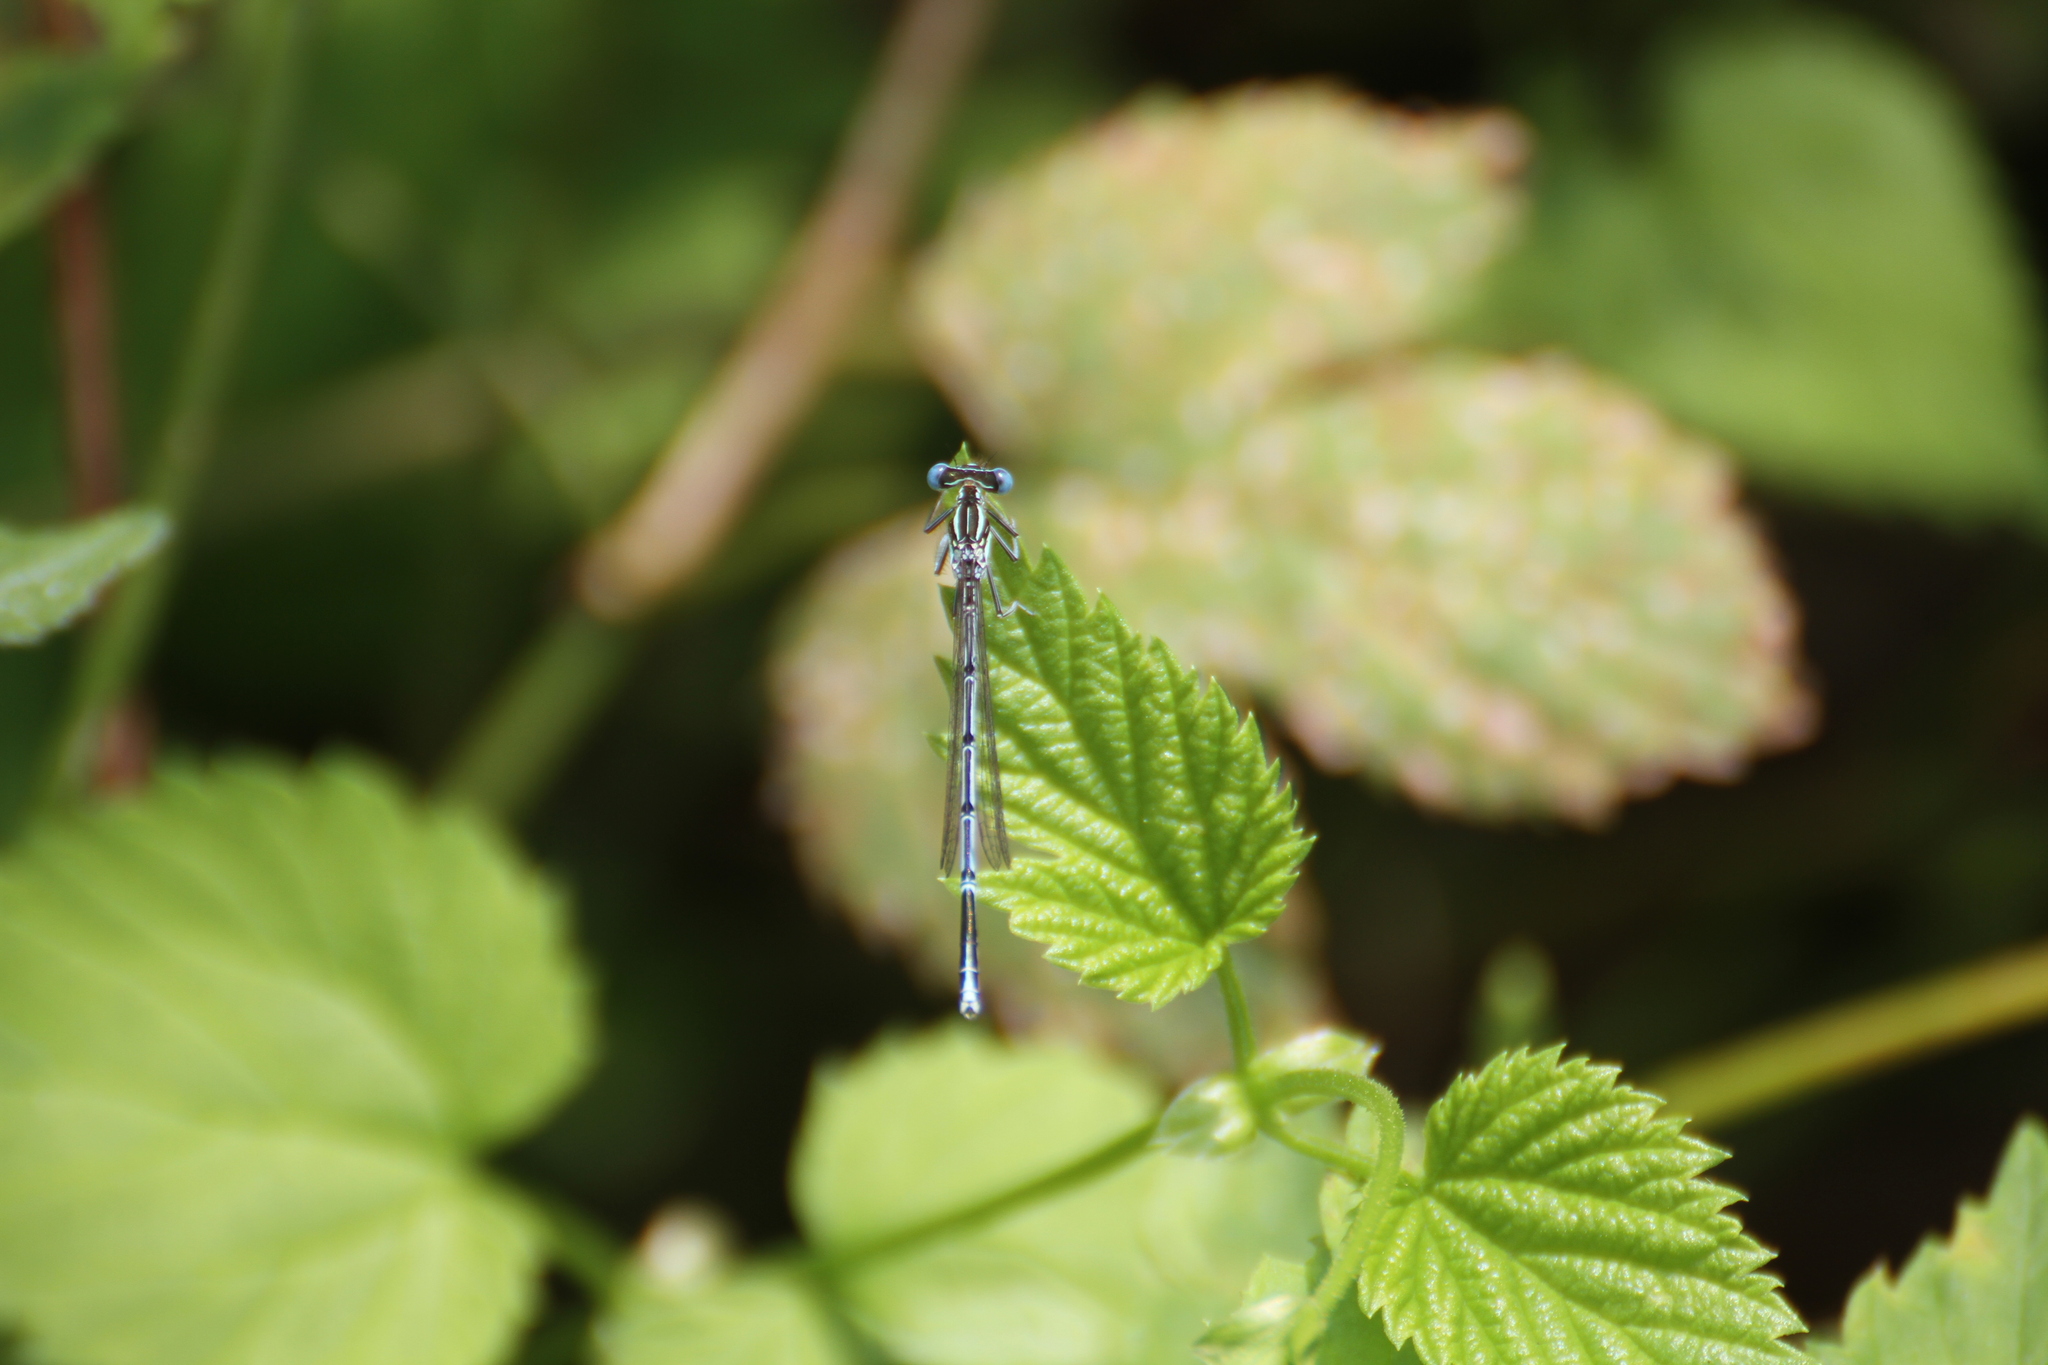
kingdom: Animalia
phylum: Arthropoda
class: Insecta
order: Odonata
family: Platycnemididae
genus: Platycnemis
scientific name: Platycnemis pennipes
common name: White-legged damselfly
